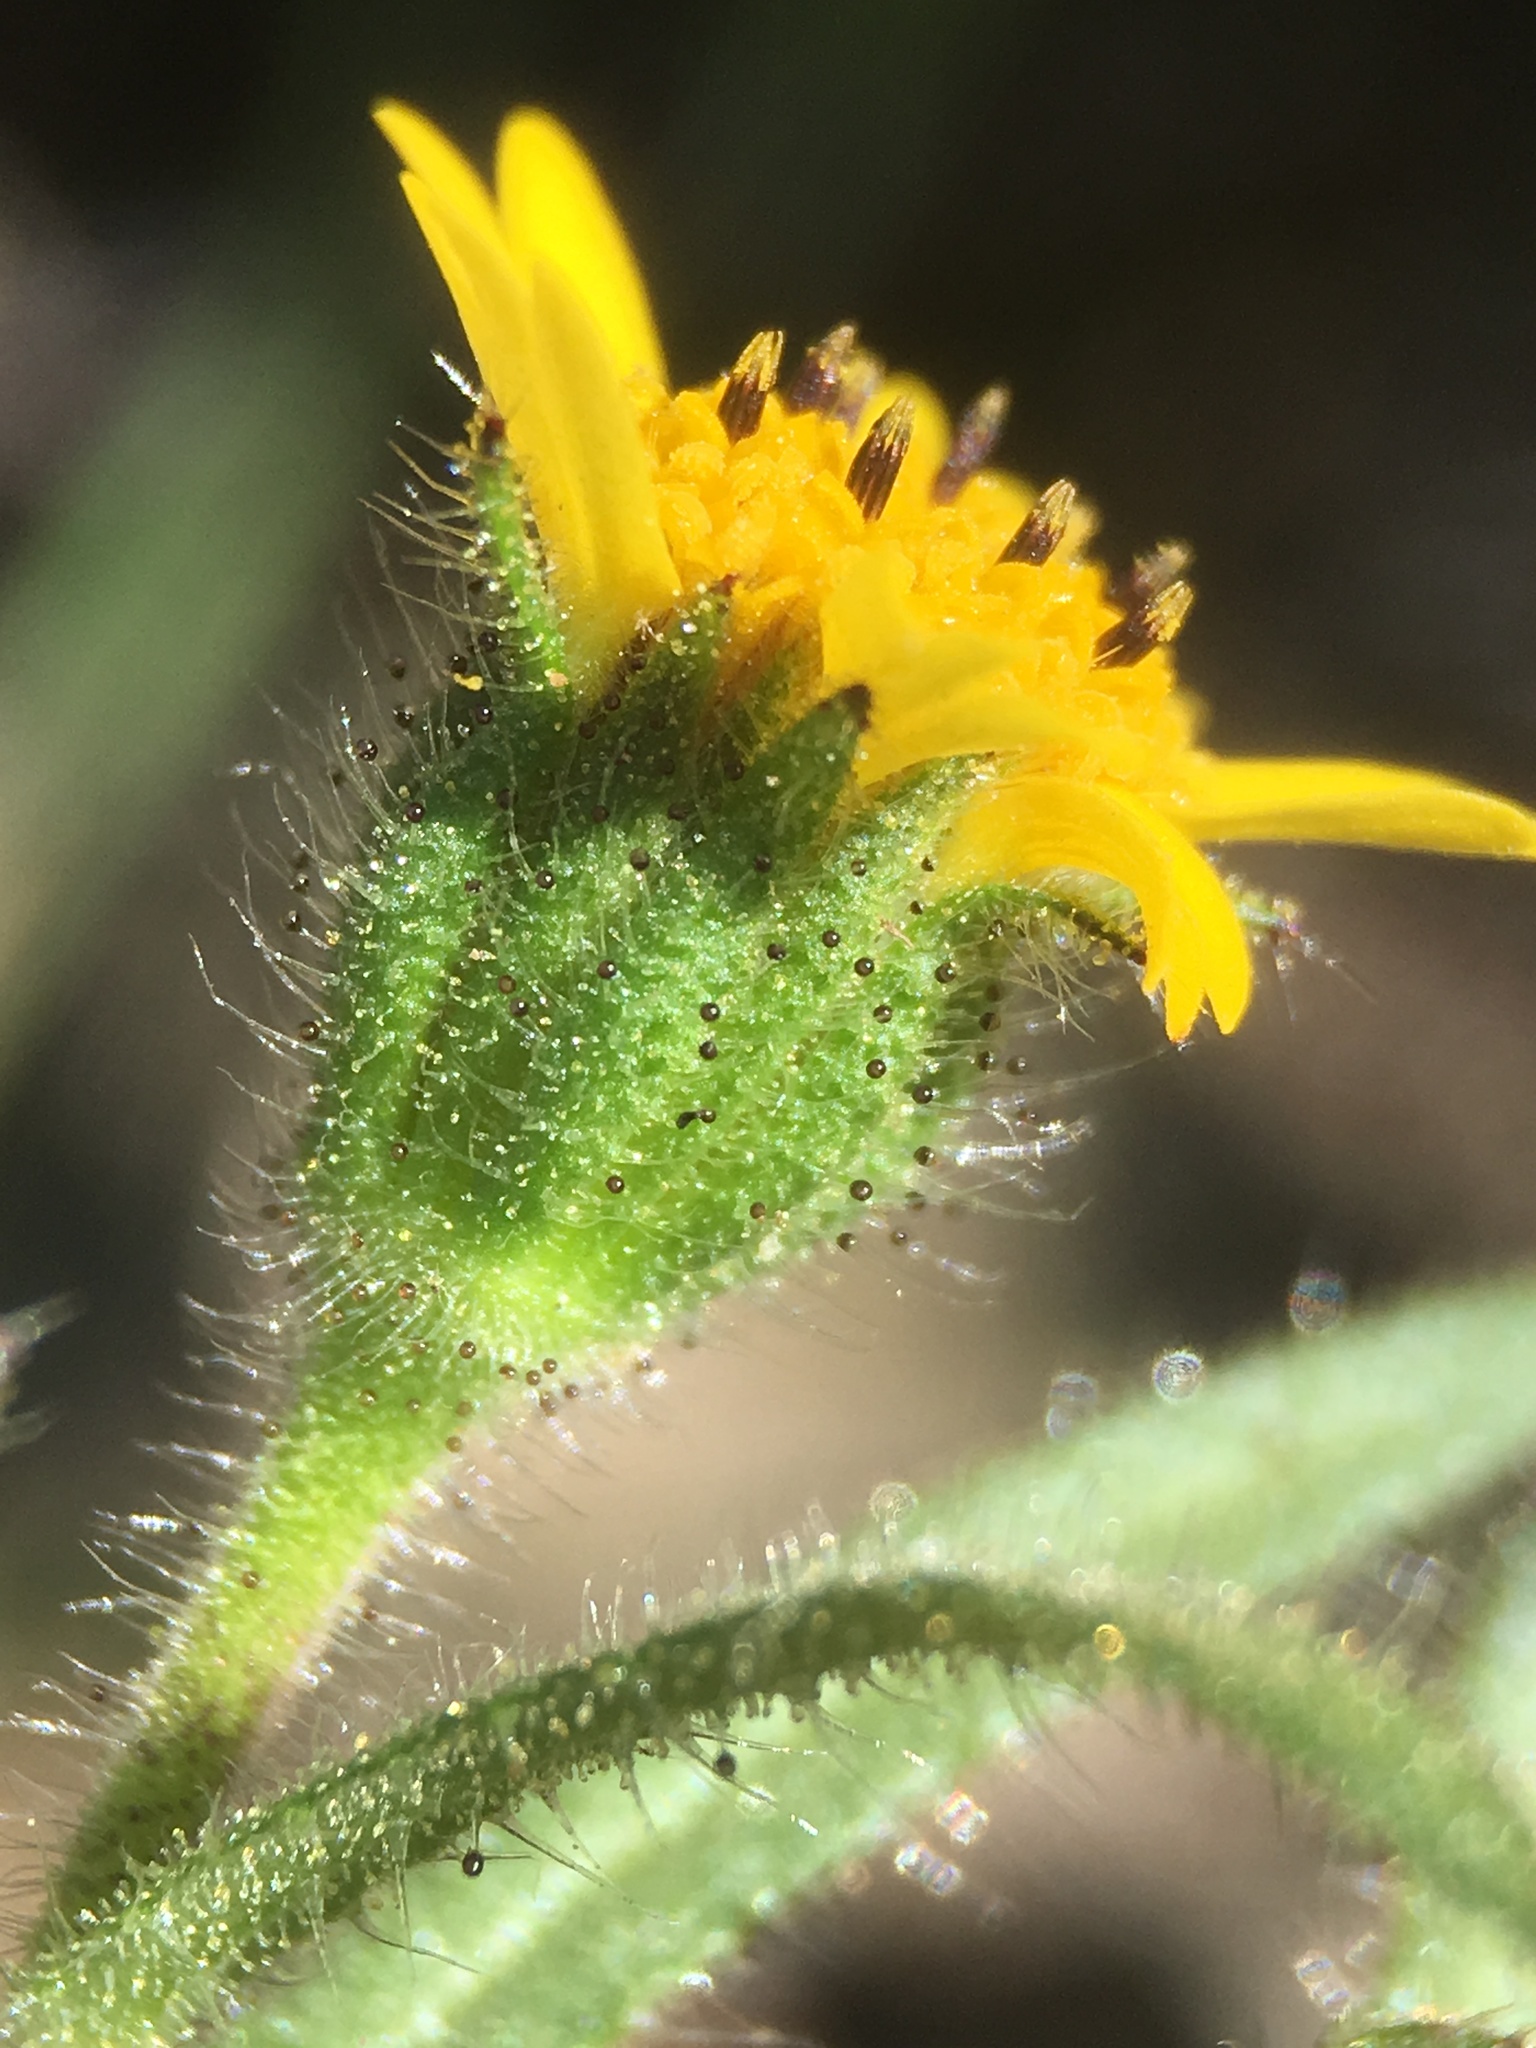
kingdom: Plantae
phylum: Tracheophyta
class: Magnoliopsida
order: Asterales
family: Asteraceae
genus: Layia
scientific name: Layia hieracioides
